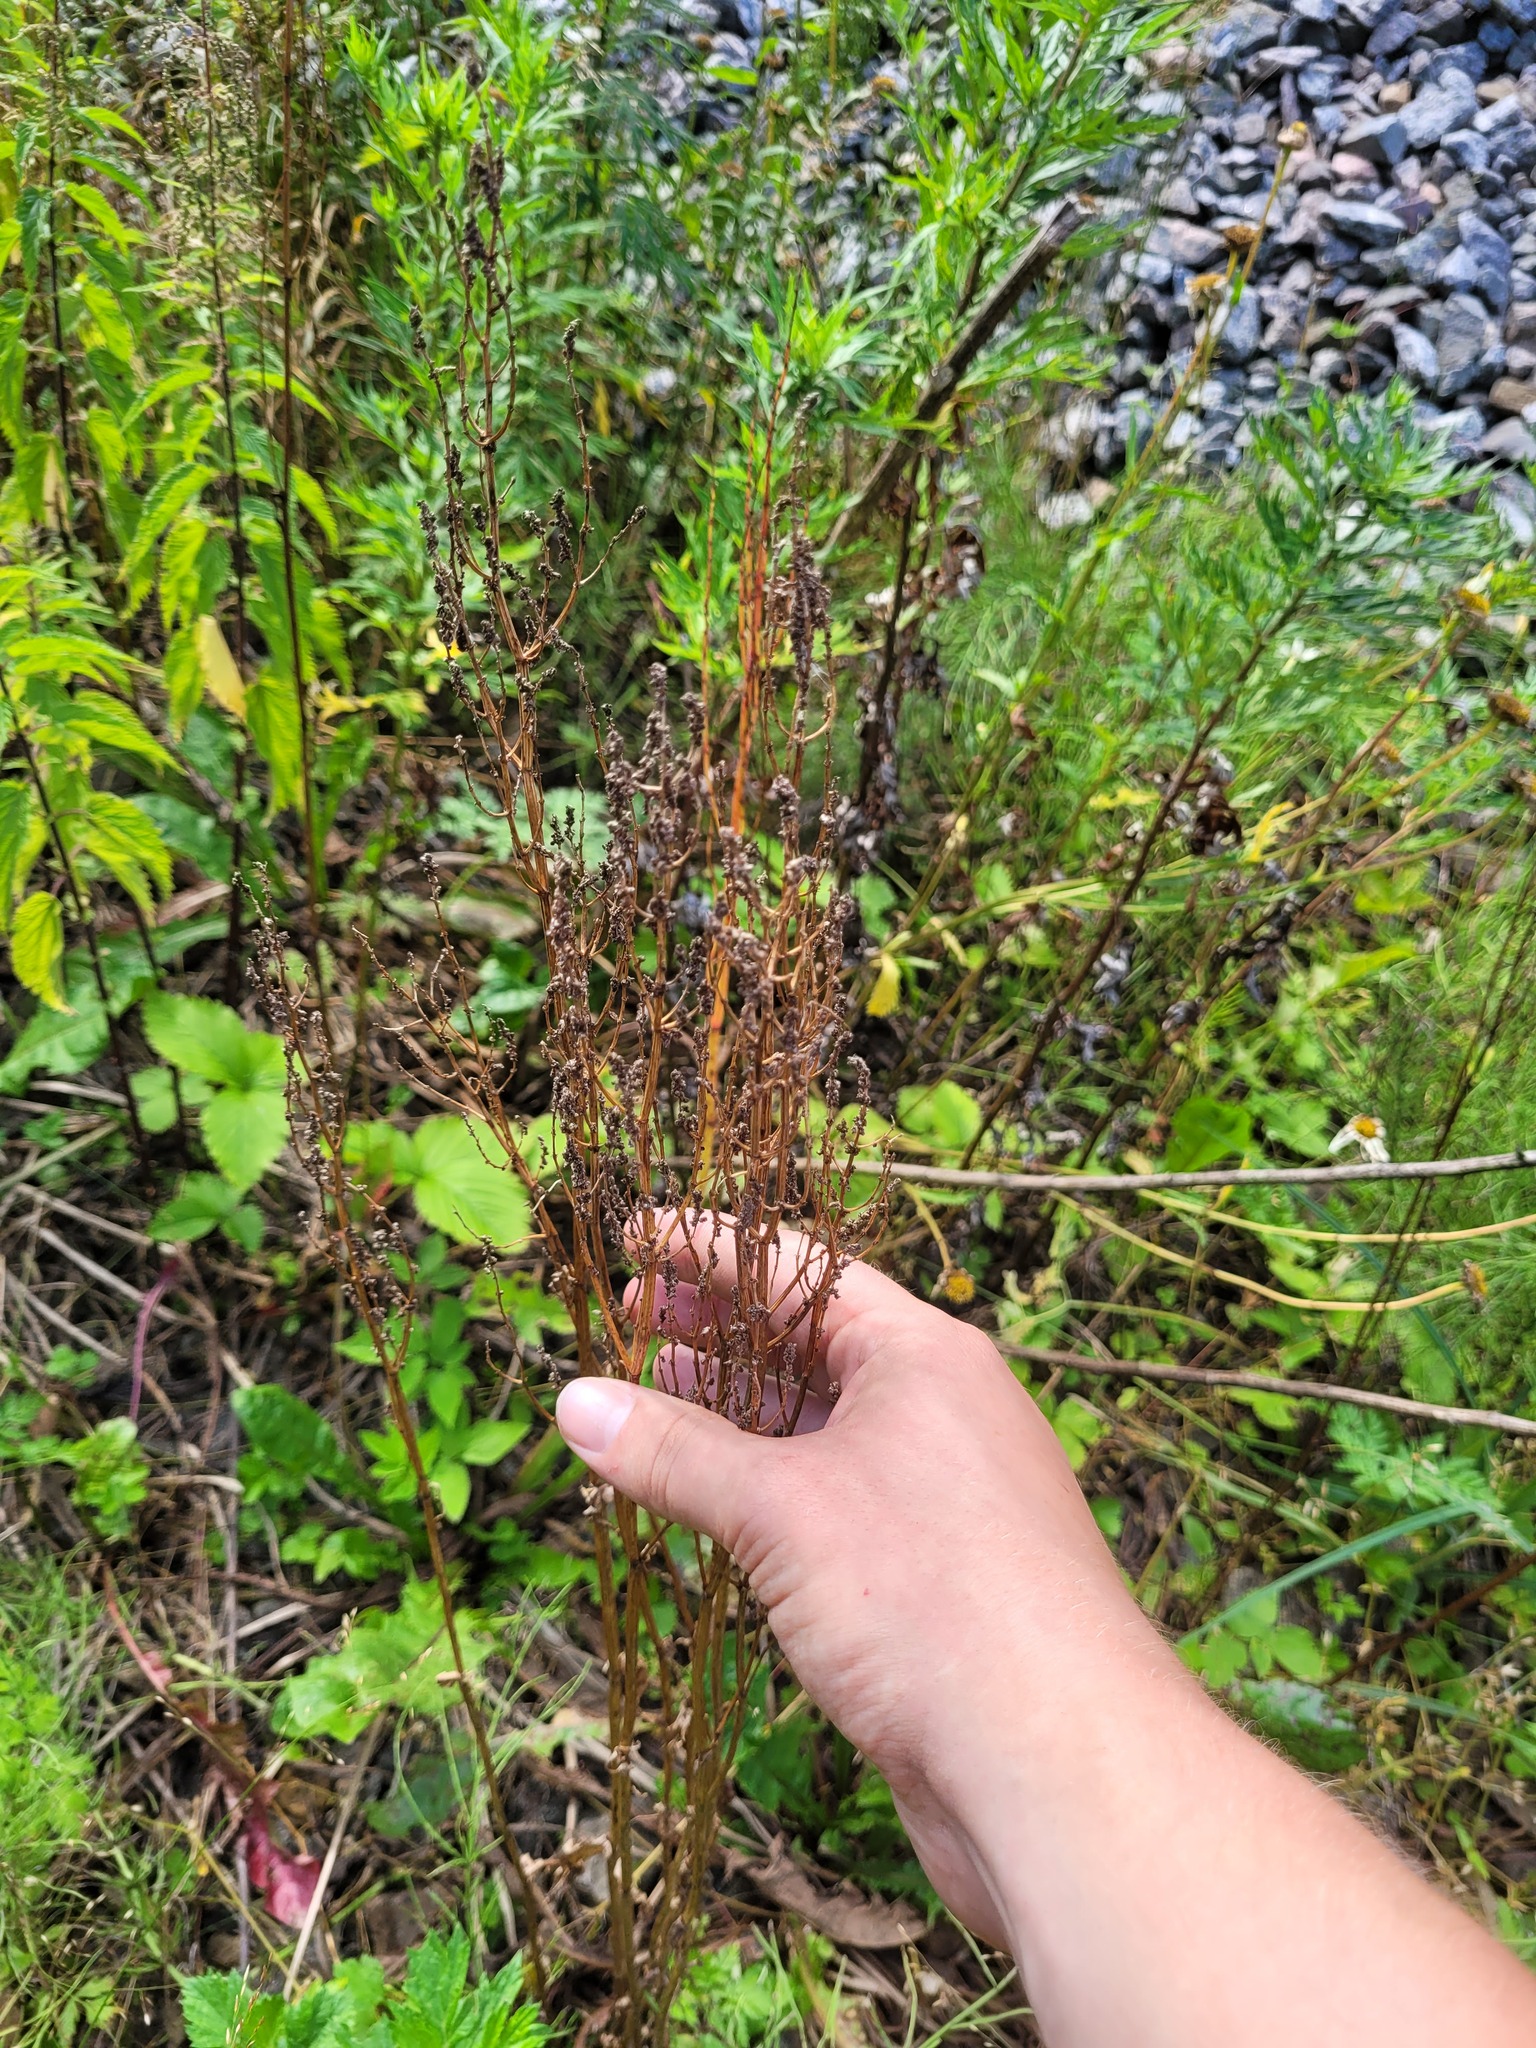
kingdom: Plantae
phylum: Tracheophyta
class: Magnoliopsida
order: Caryophyllales
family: Polygonaceae
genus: Rumex
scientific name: Rumex thyrsiflorus
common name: Garden sorrel
